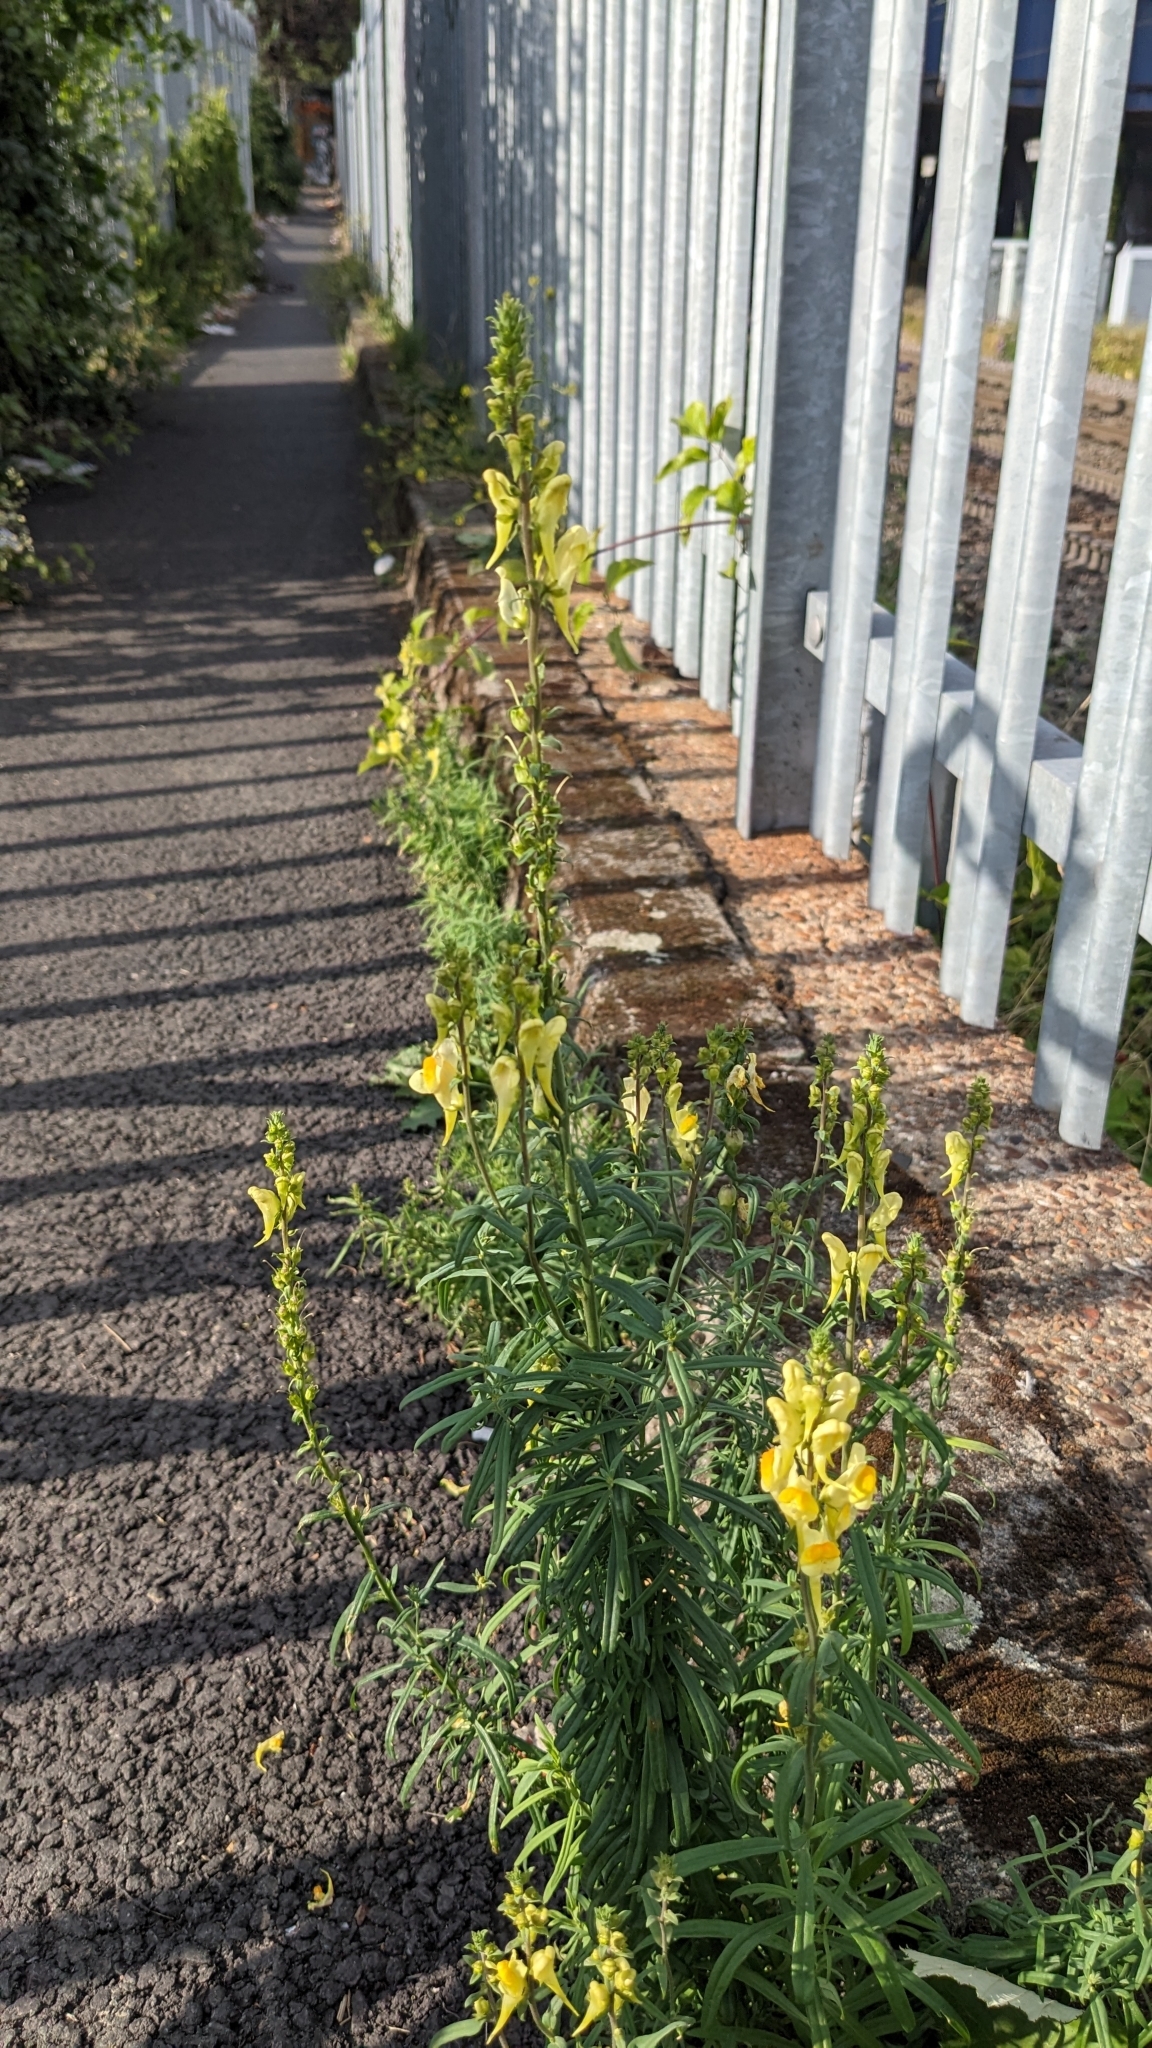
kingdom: Plantae
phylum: Tracheophyta
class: Magnoliopsida
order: Lamiales
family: Plantaginaceae
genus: Linaria
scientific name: Linaria vulgaris
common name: Butter and eggs
